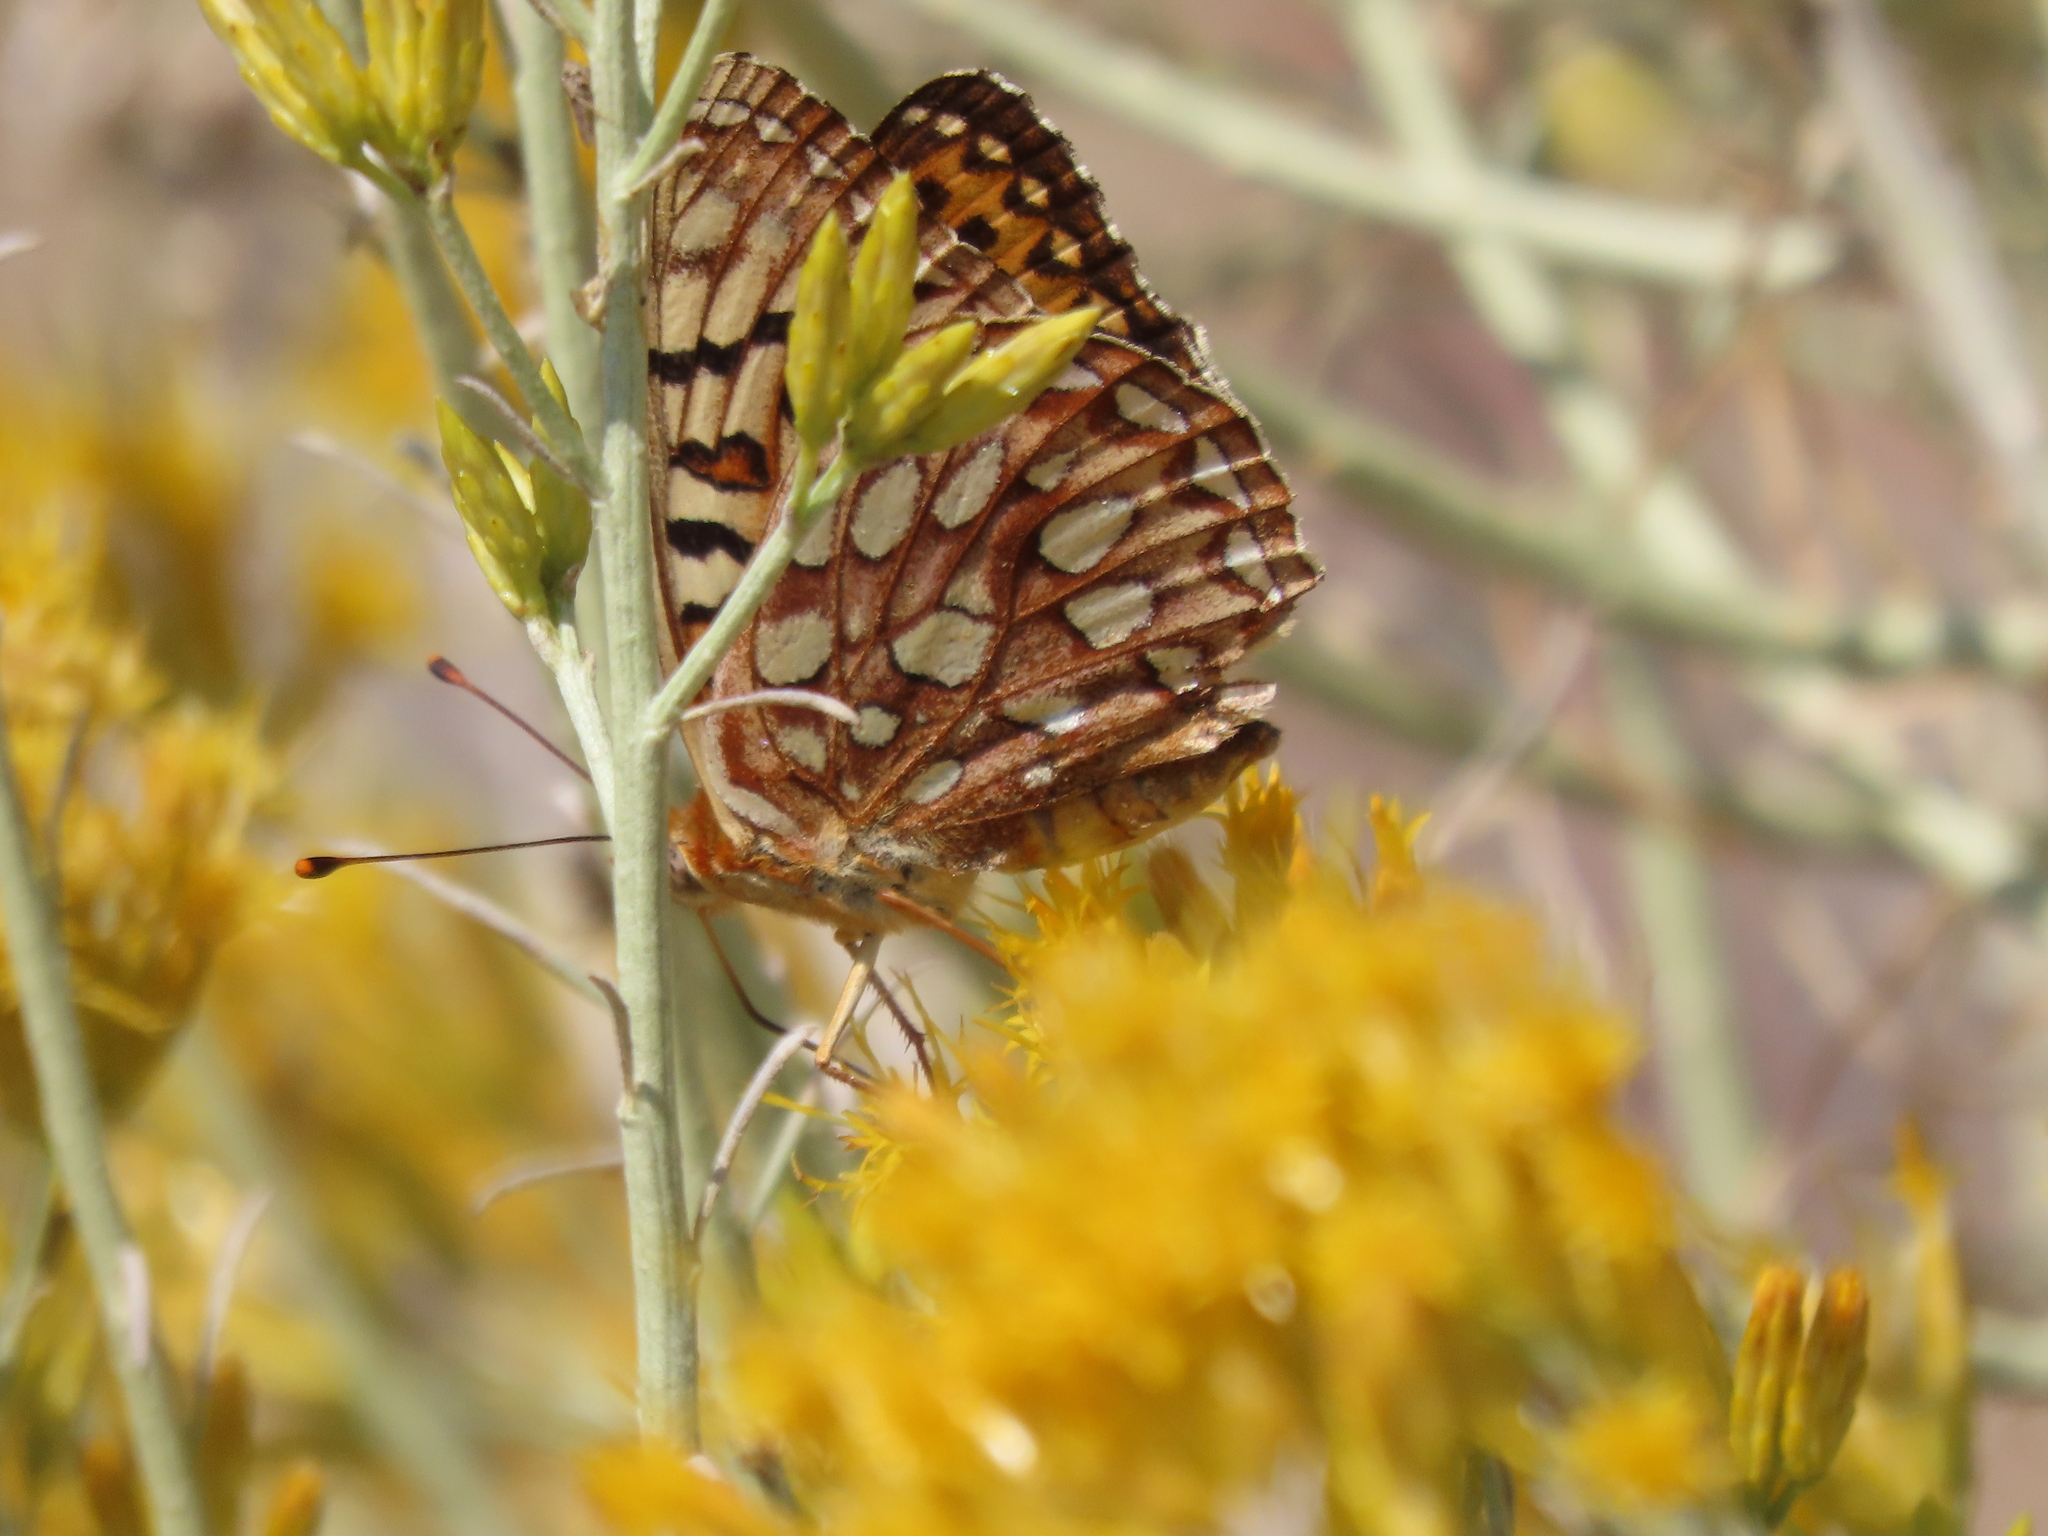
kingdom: Animalia
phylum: Arthropoda
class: Insecta
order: Lepidoptera
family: Nymphalidae
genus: Argynnis
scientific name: Argynnis coronis
